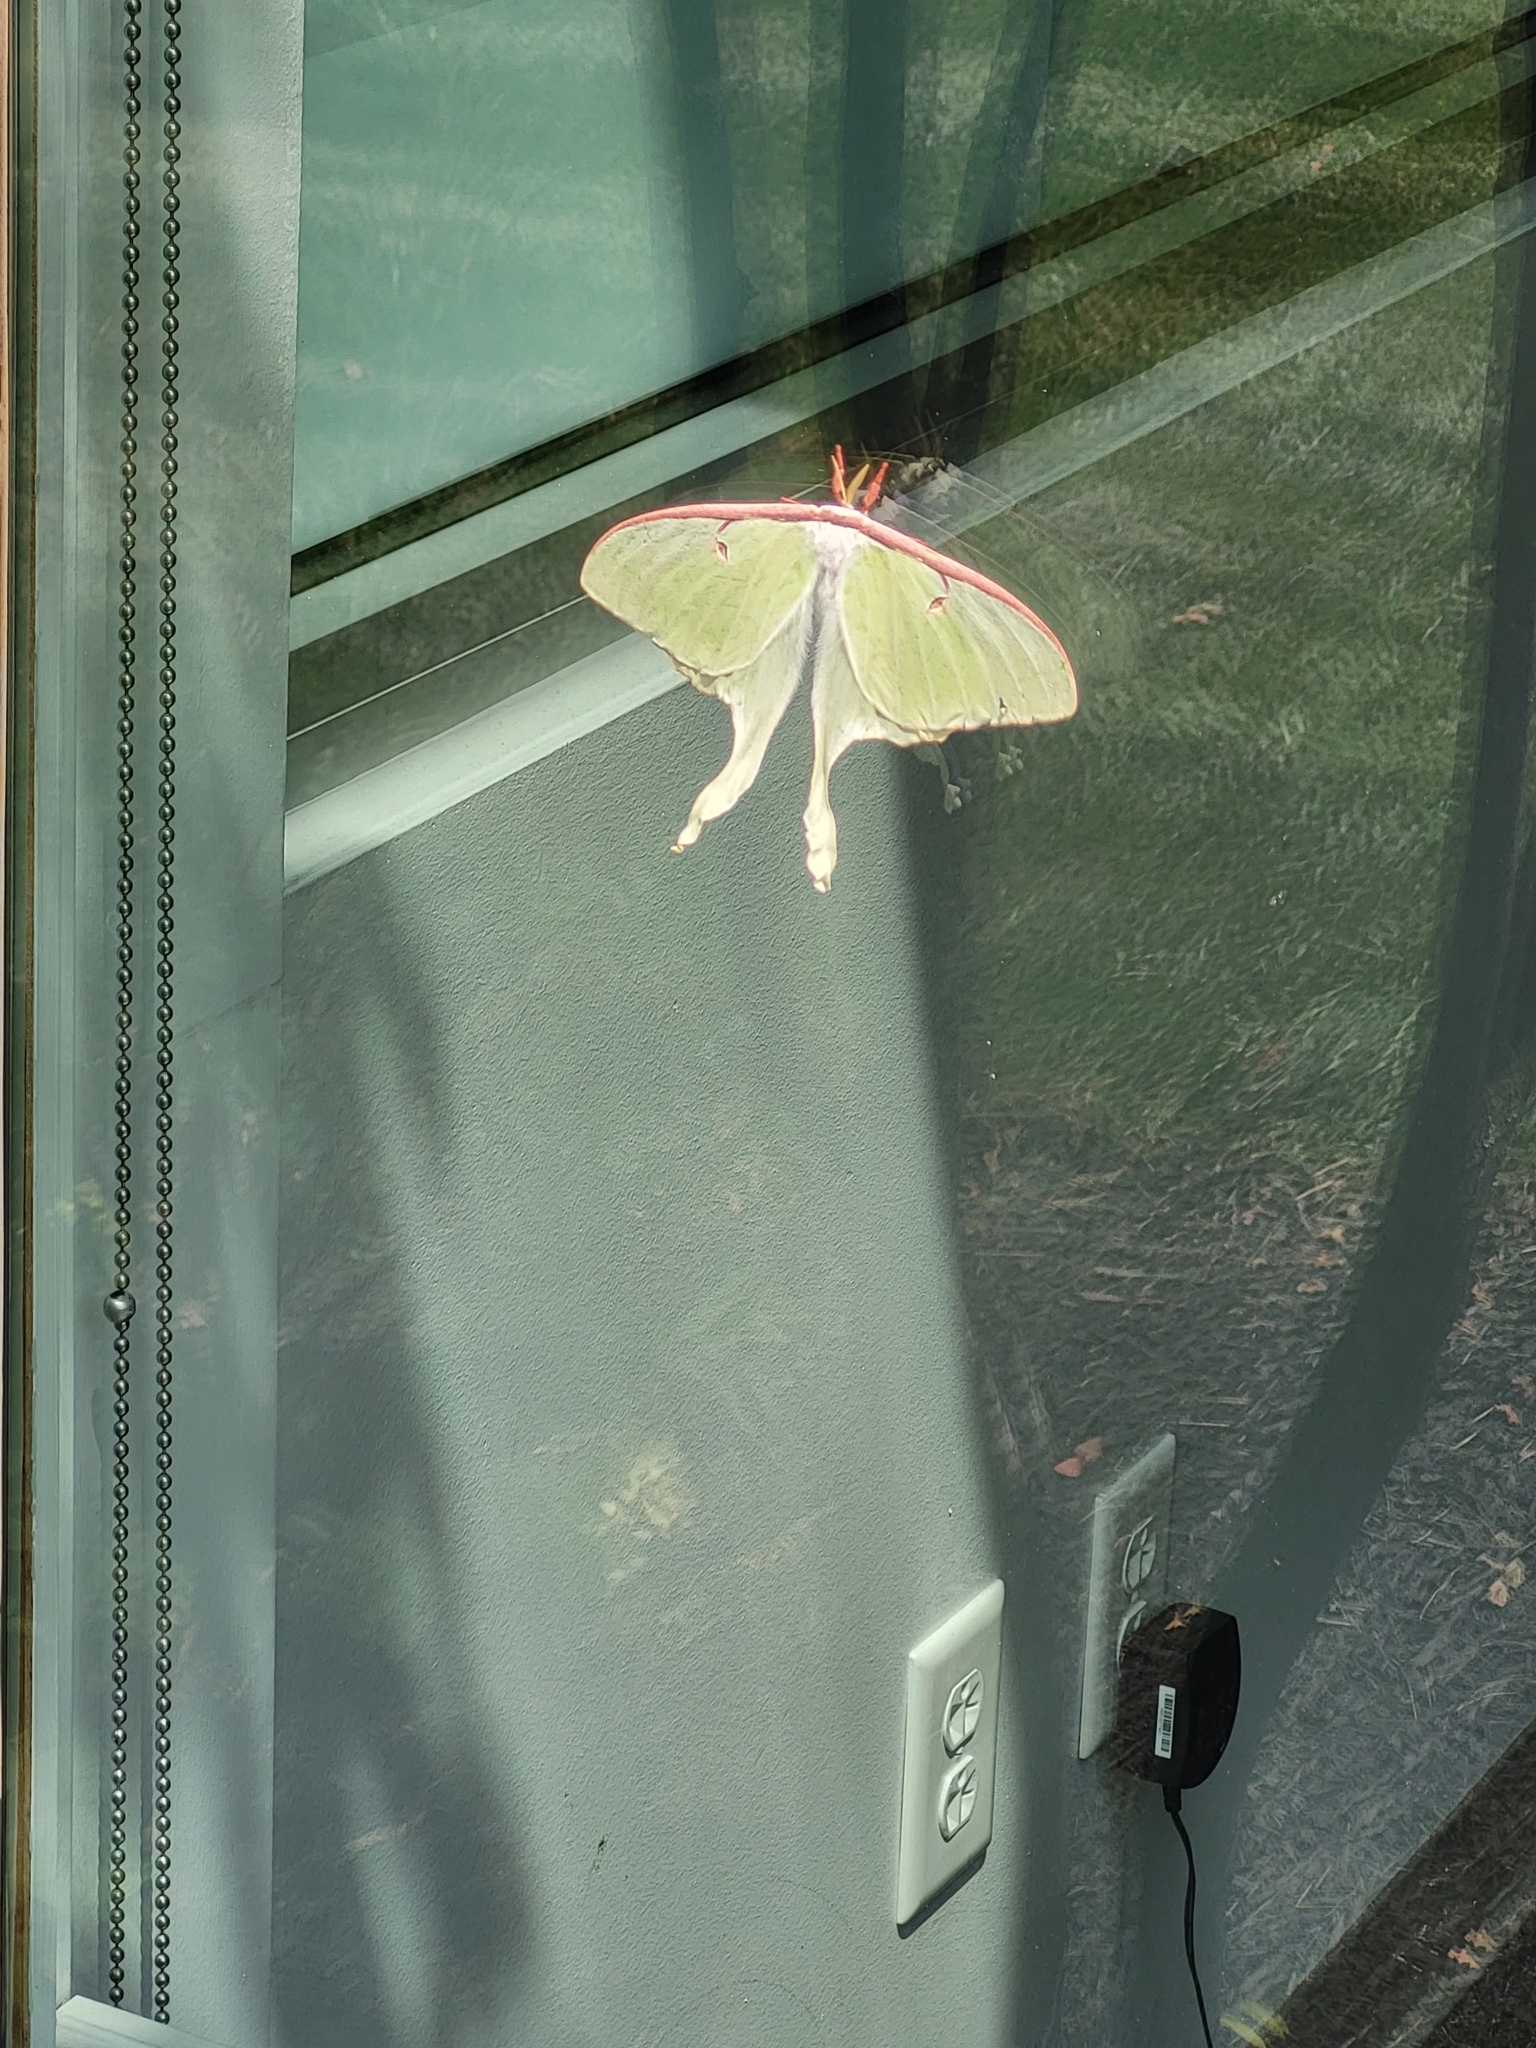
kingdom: Animalia
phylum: Arthropoda
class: Insecta
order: Lepidoptera
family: Saturniidae
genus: Actias
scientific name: Actias luna
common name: Luna moth
